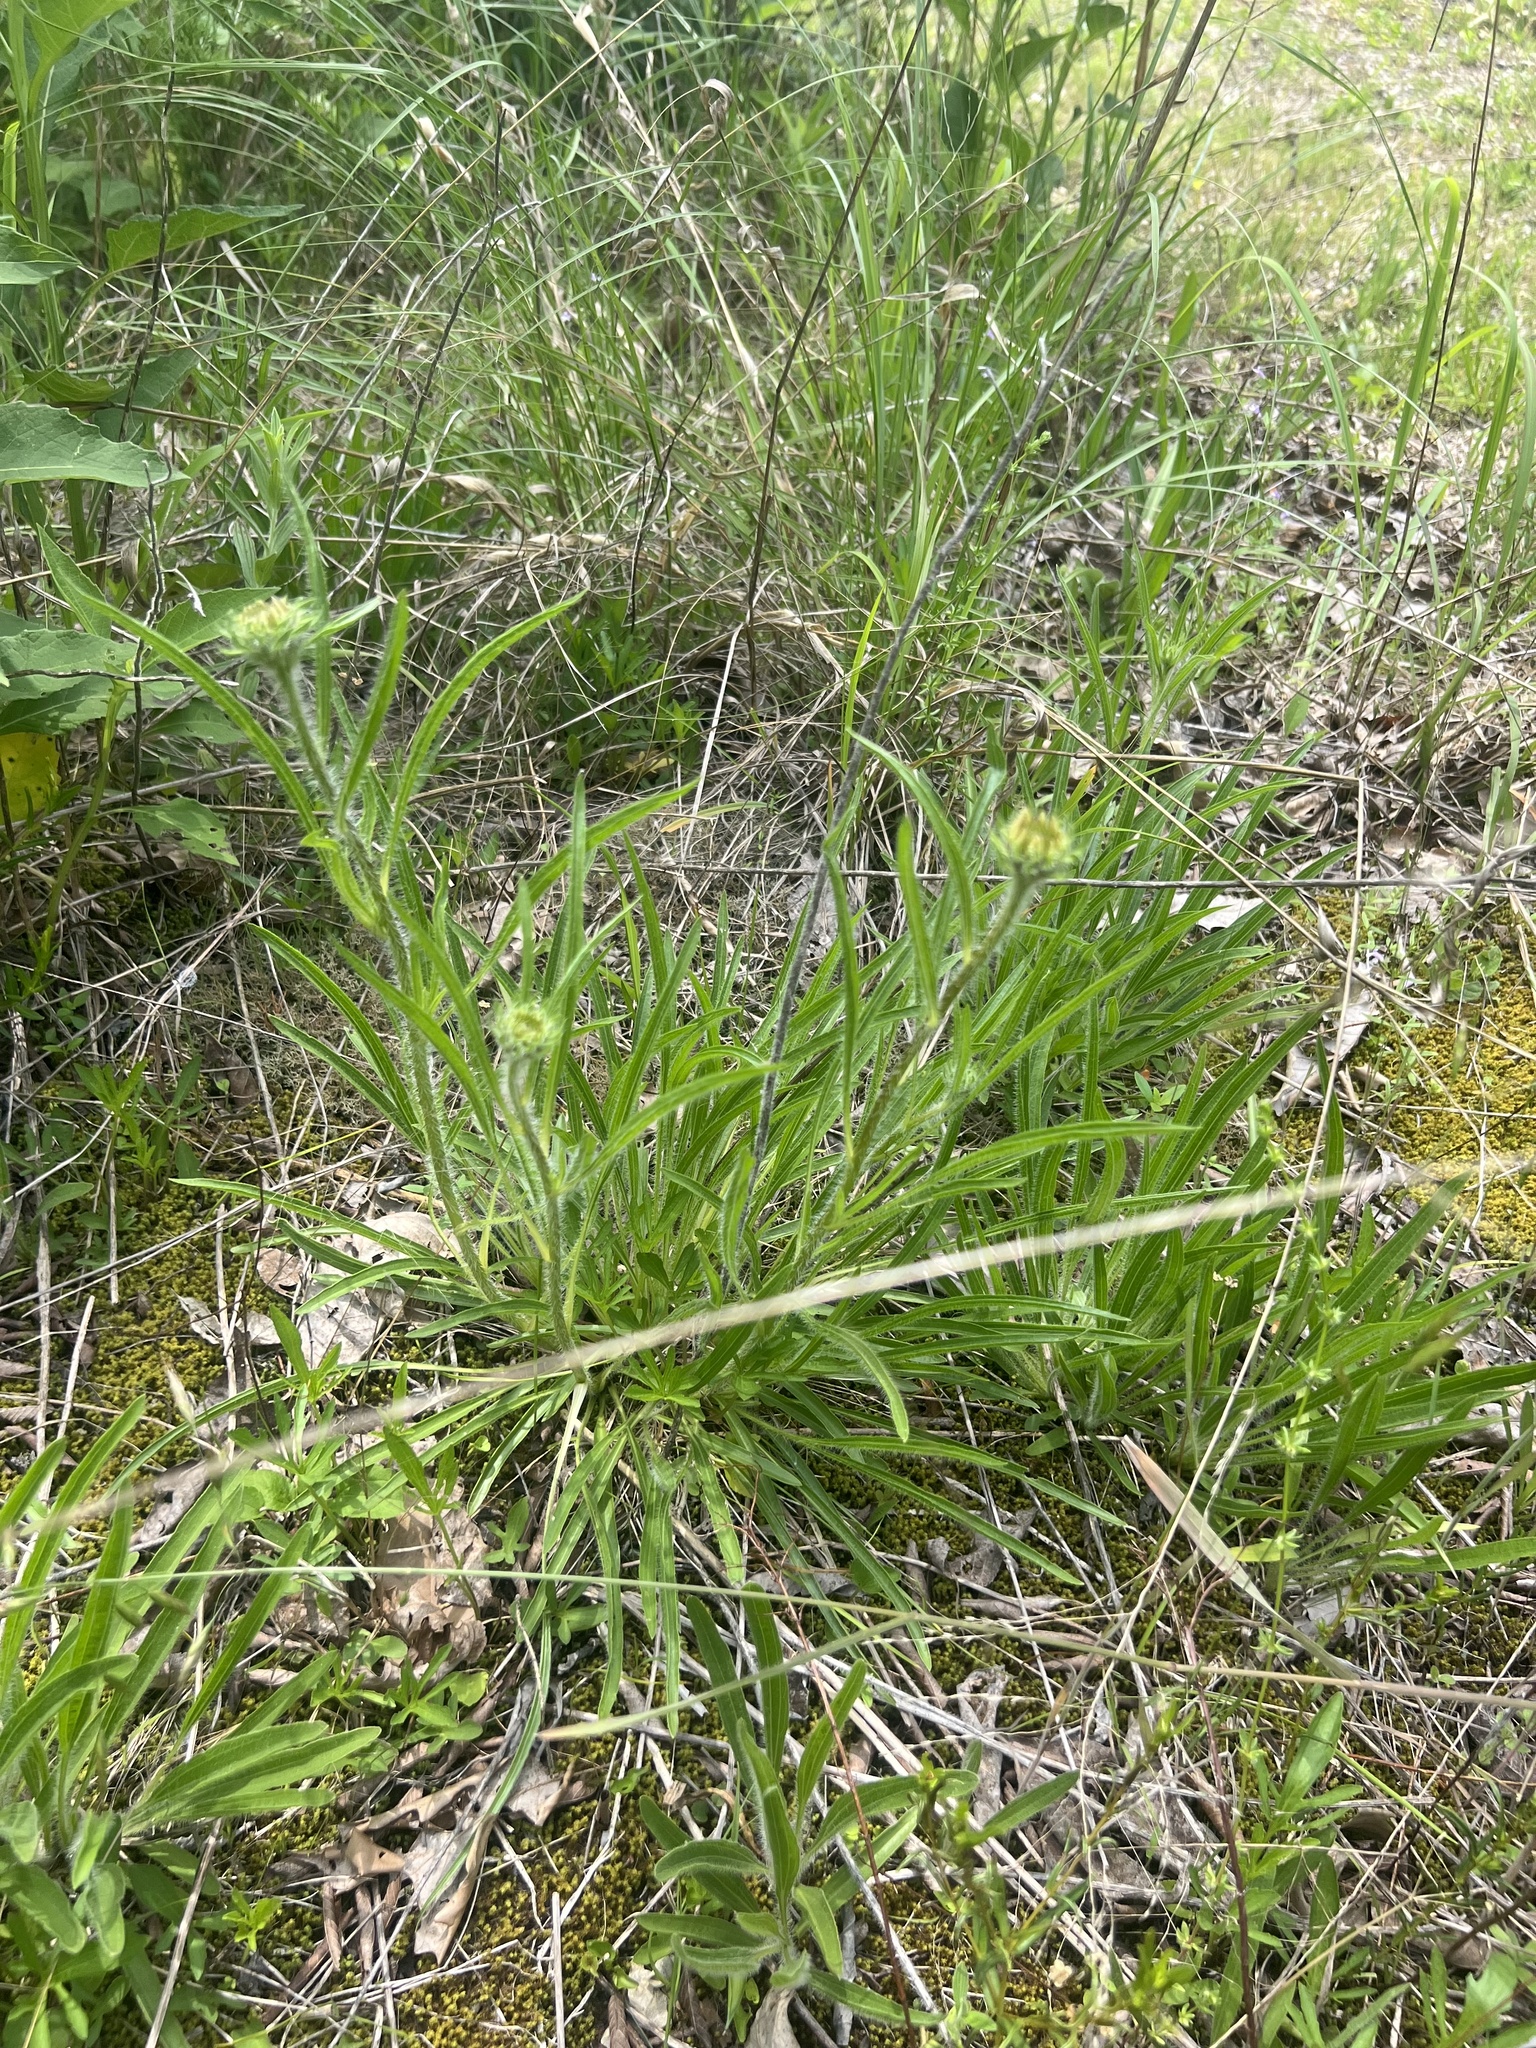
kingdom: Plantae
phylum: Tracheophyta
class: Magnoliopsida
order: Asterales
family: Asteraceae
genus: Echinacea
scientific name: Echinacea tennesseensis
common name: Tennessee purple-coneflower
